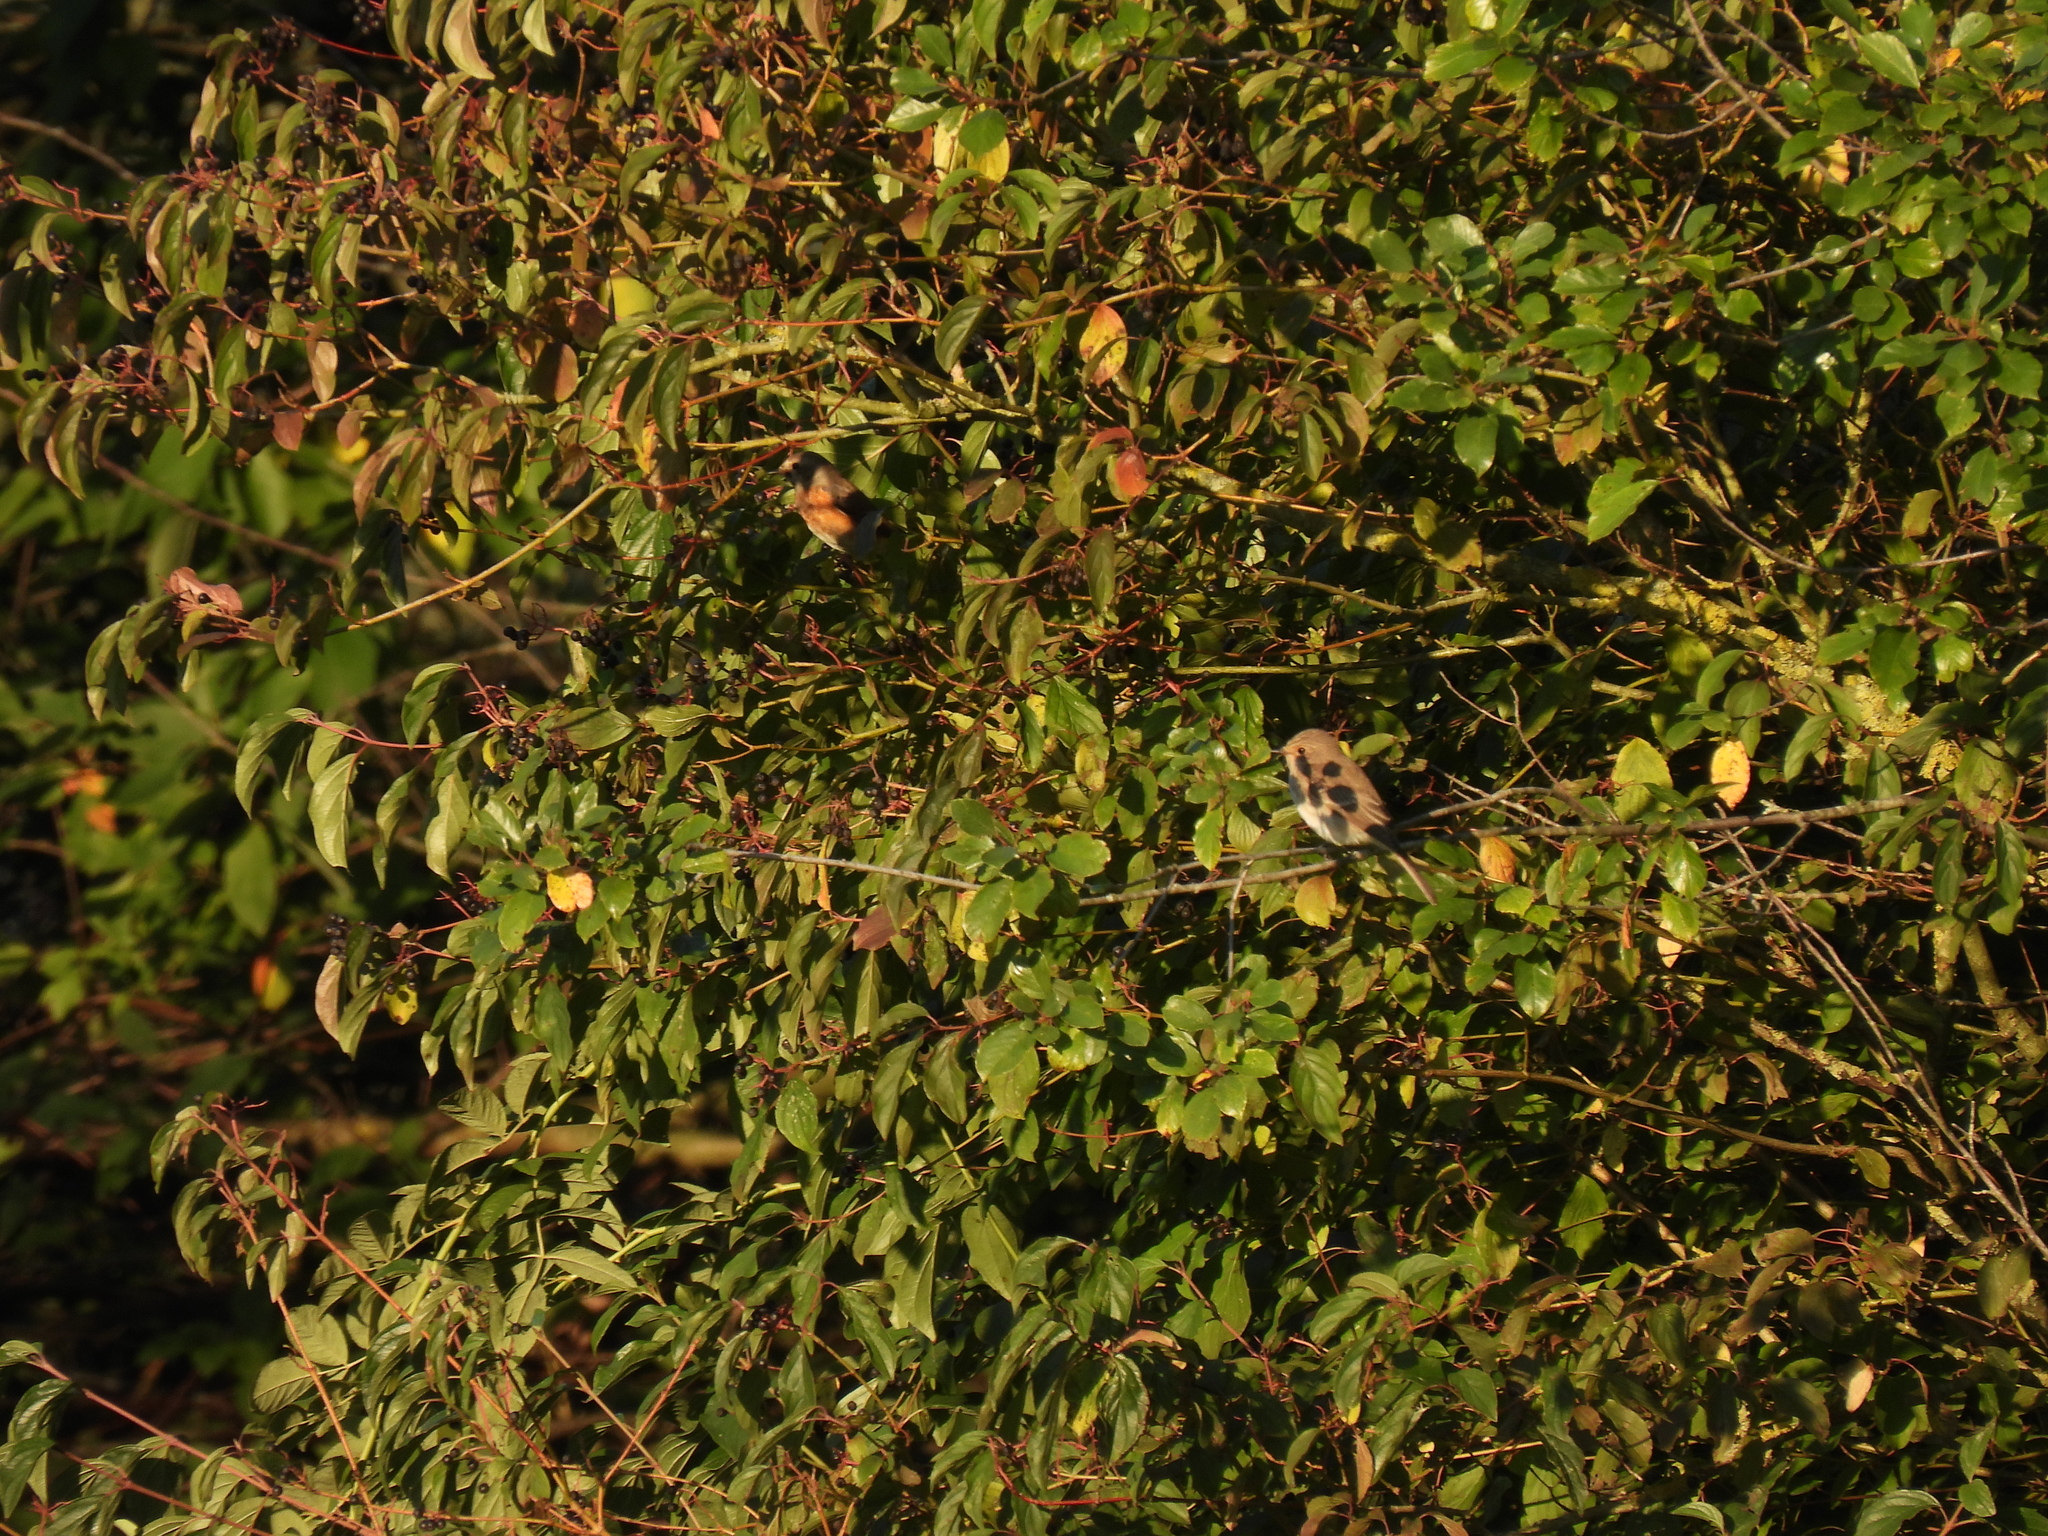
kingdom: Animalia
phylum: Chordata
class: Aves
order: Passeriformes
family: Muscicapidae
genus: Muscicapa
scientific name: Muscicapa striata
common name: Spotted flycatcher
